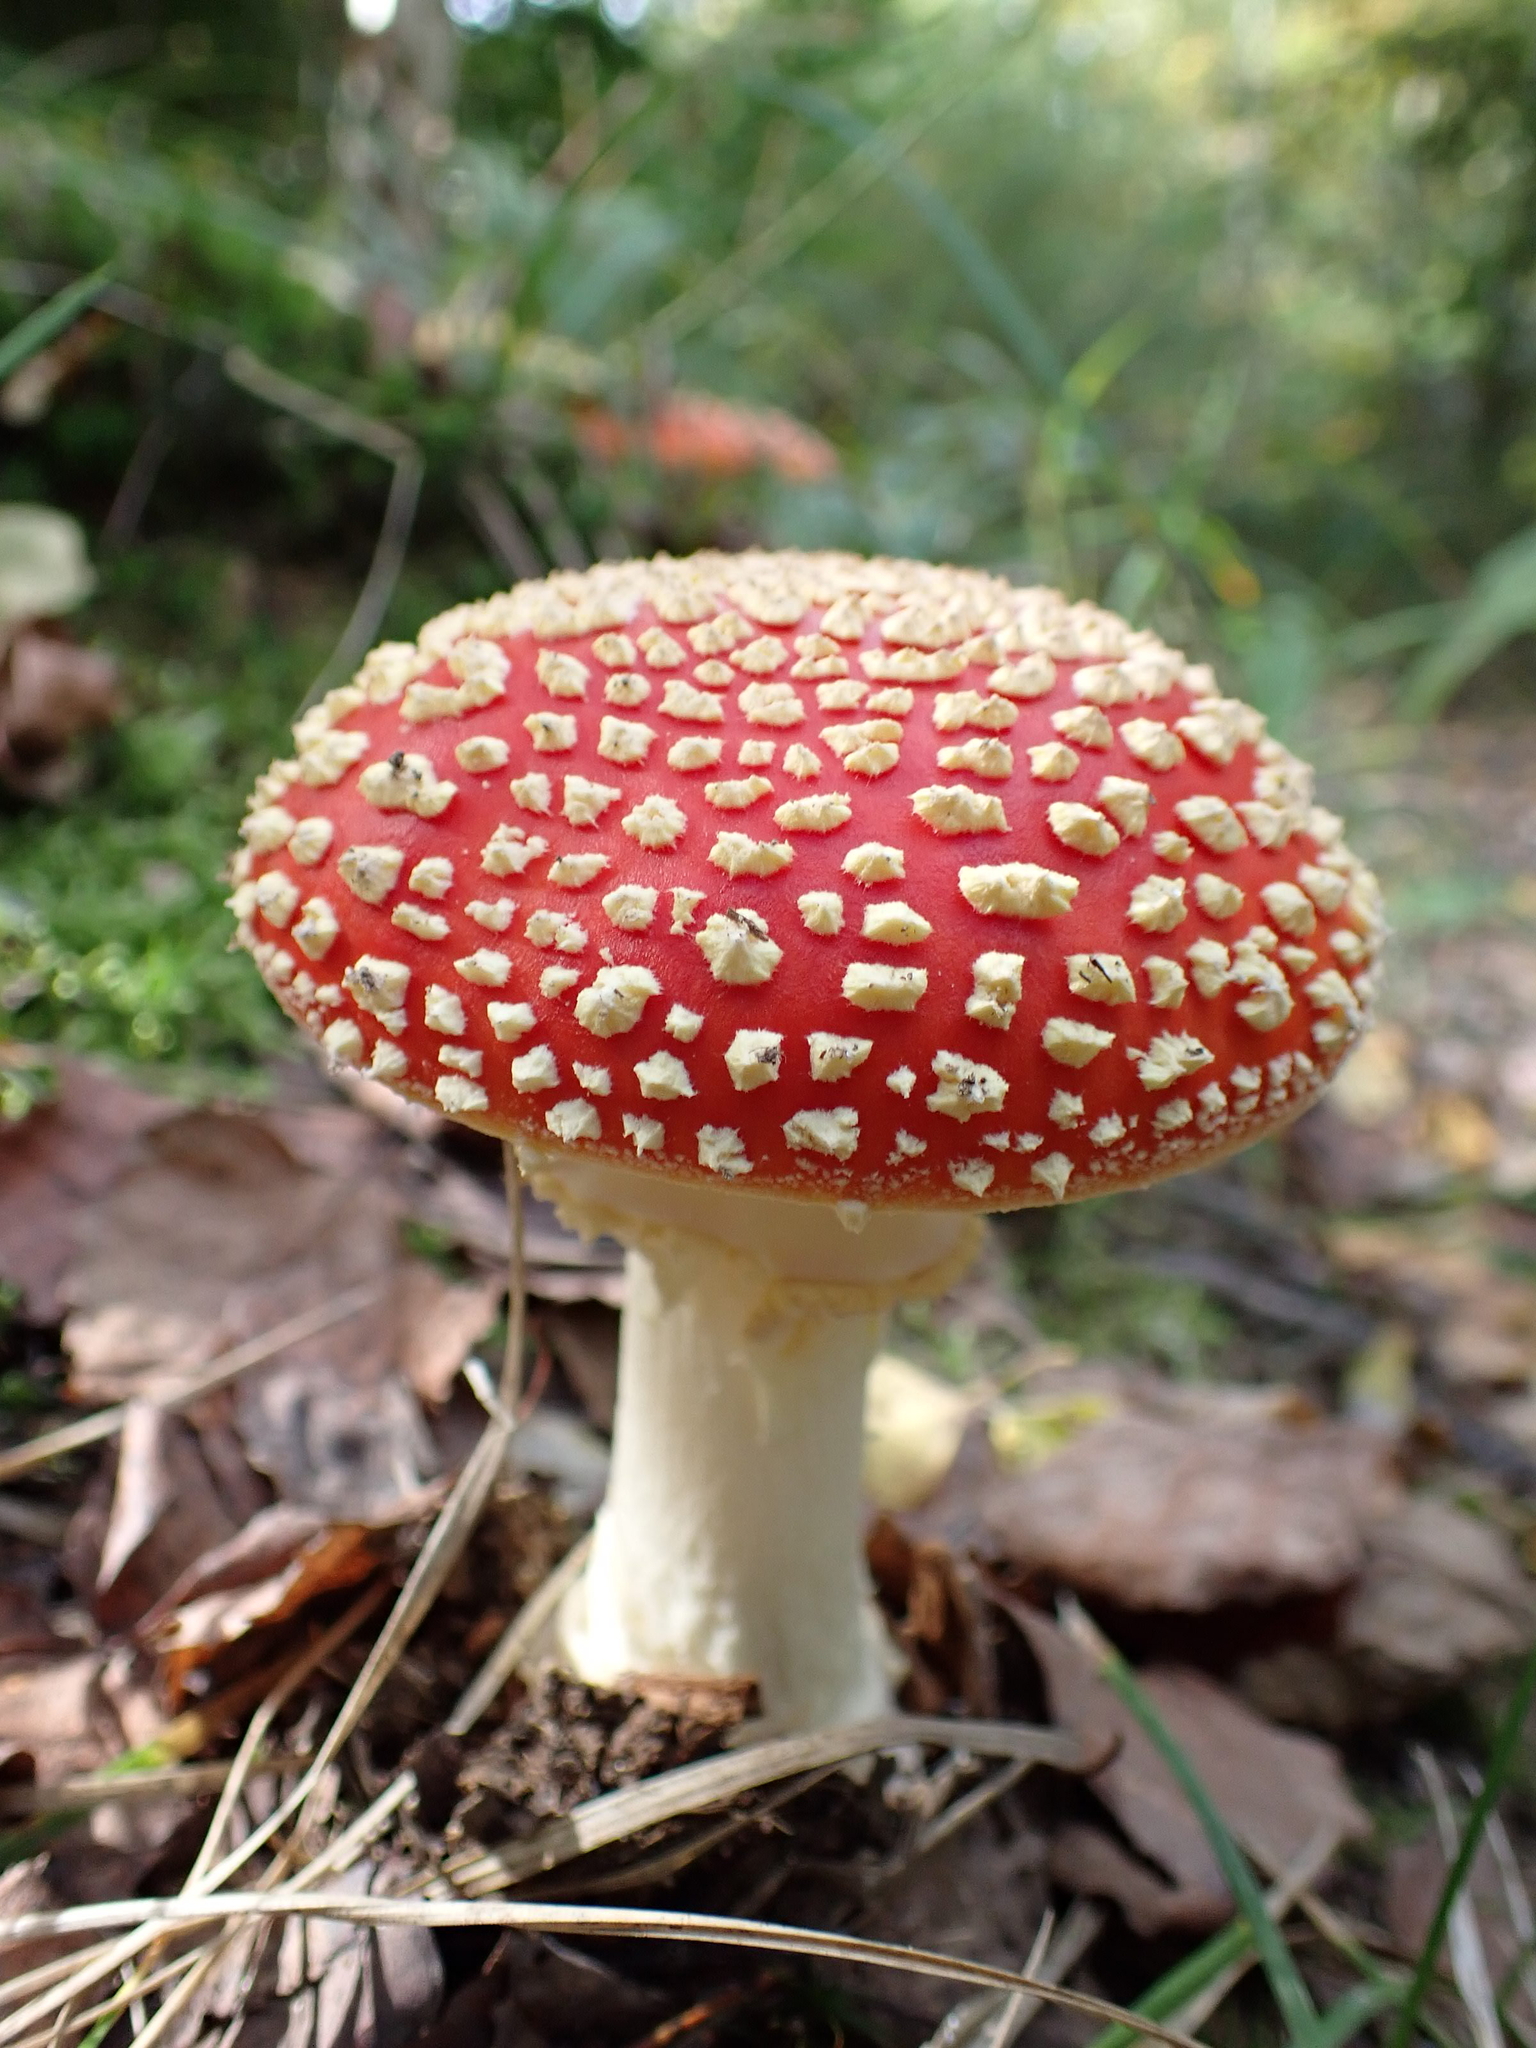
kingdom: Fungi
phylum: Basidiomycota
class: Agaricomycetes
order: Agaricales
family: Amanitaceae
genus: Amanita
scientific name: Amanita muscaria
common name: Fly agaric
